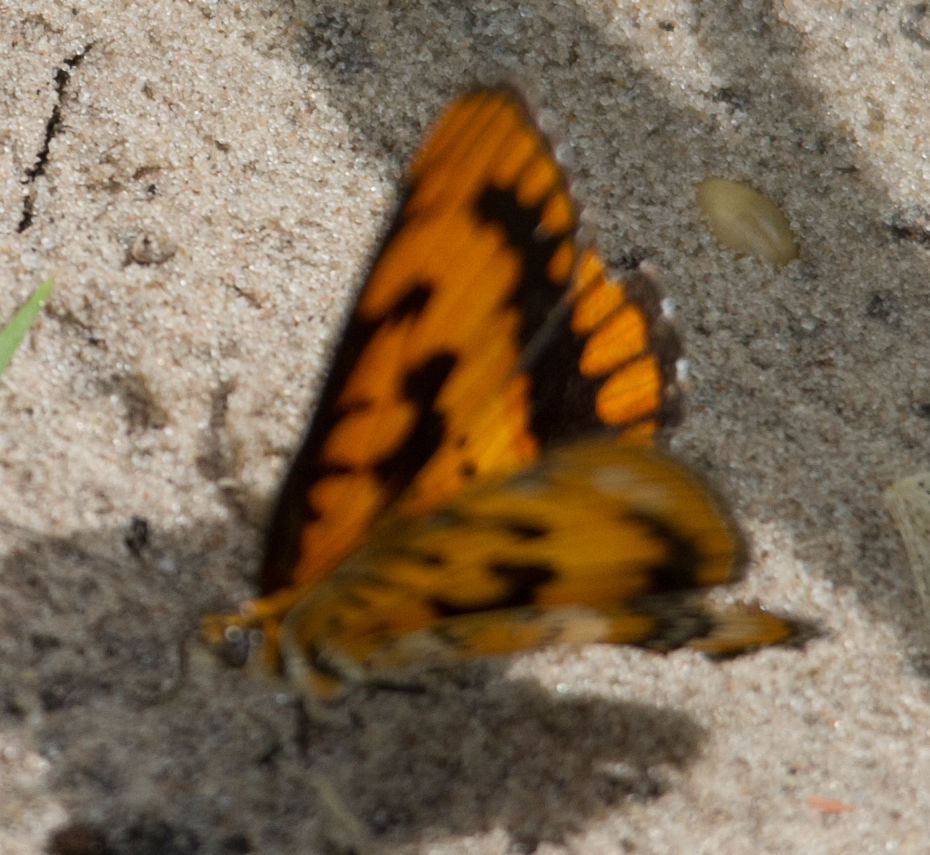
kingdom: Animalia
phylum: Arthropoda
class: Insecta
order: Lepidoptera
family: Nymphalidae
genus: Byblia
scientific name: Byblia ilithyia
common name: Spotted joker
